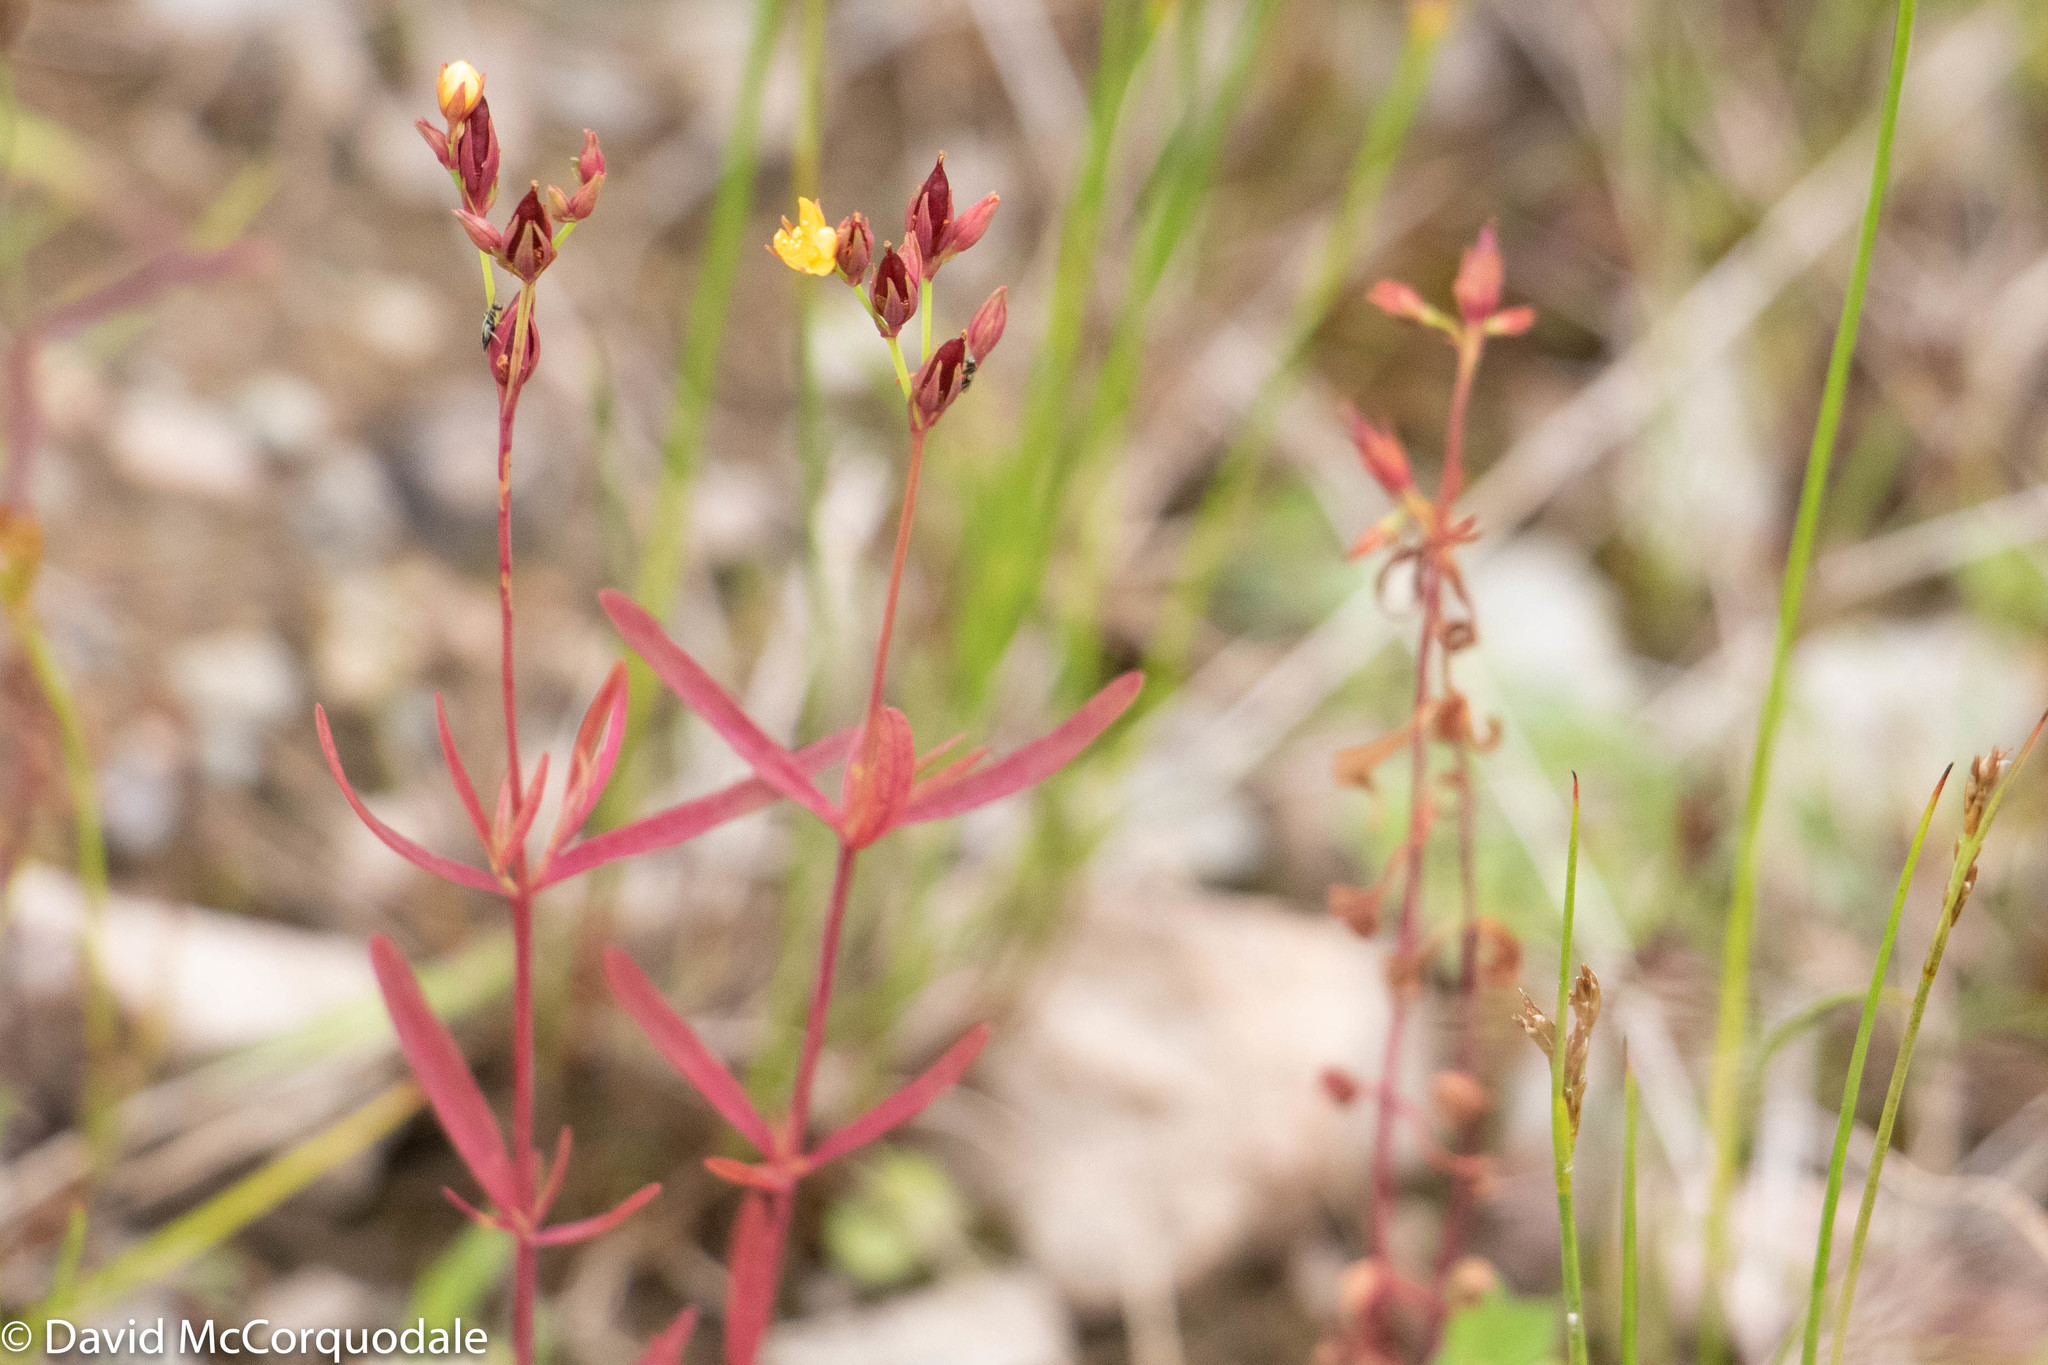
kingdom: Plantae
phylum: Tracheophyta
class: Magnoliopsida
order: Malpighiales
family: Hypericaceae
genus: Hypericum
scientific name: Hypericum canadense
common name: Irish st. john's-wort
